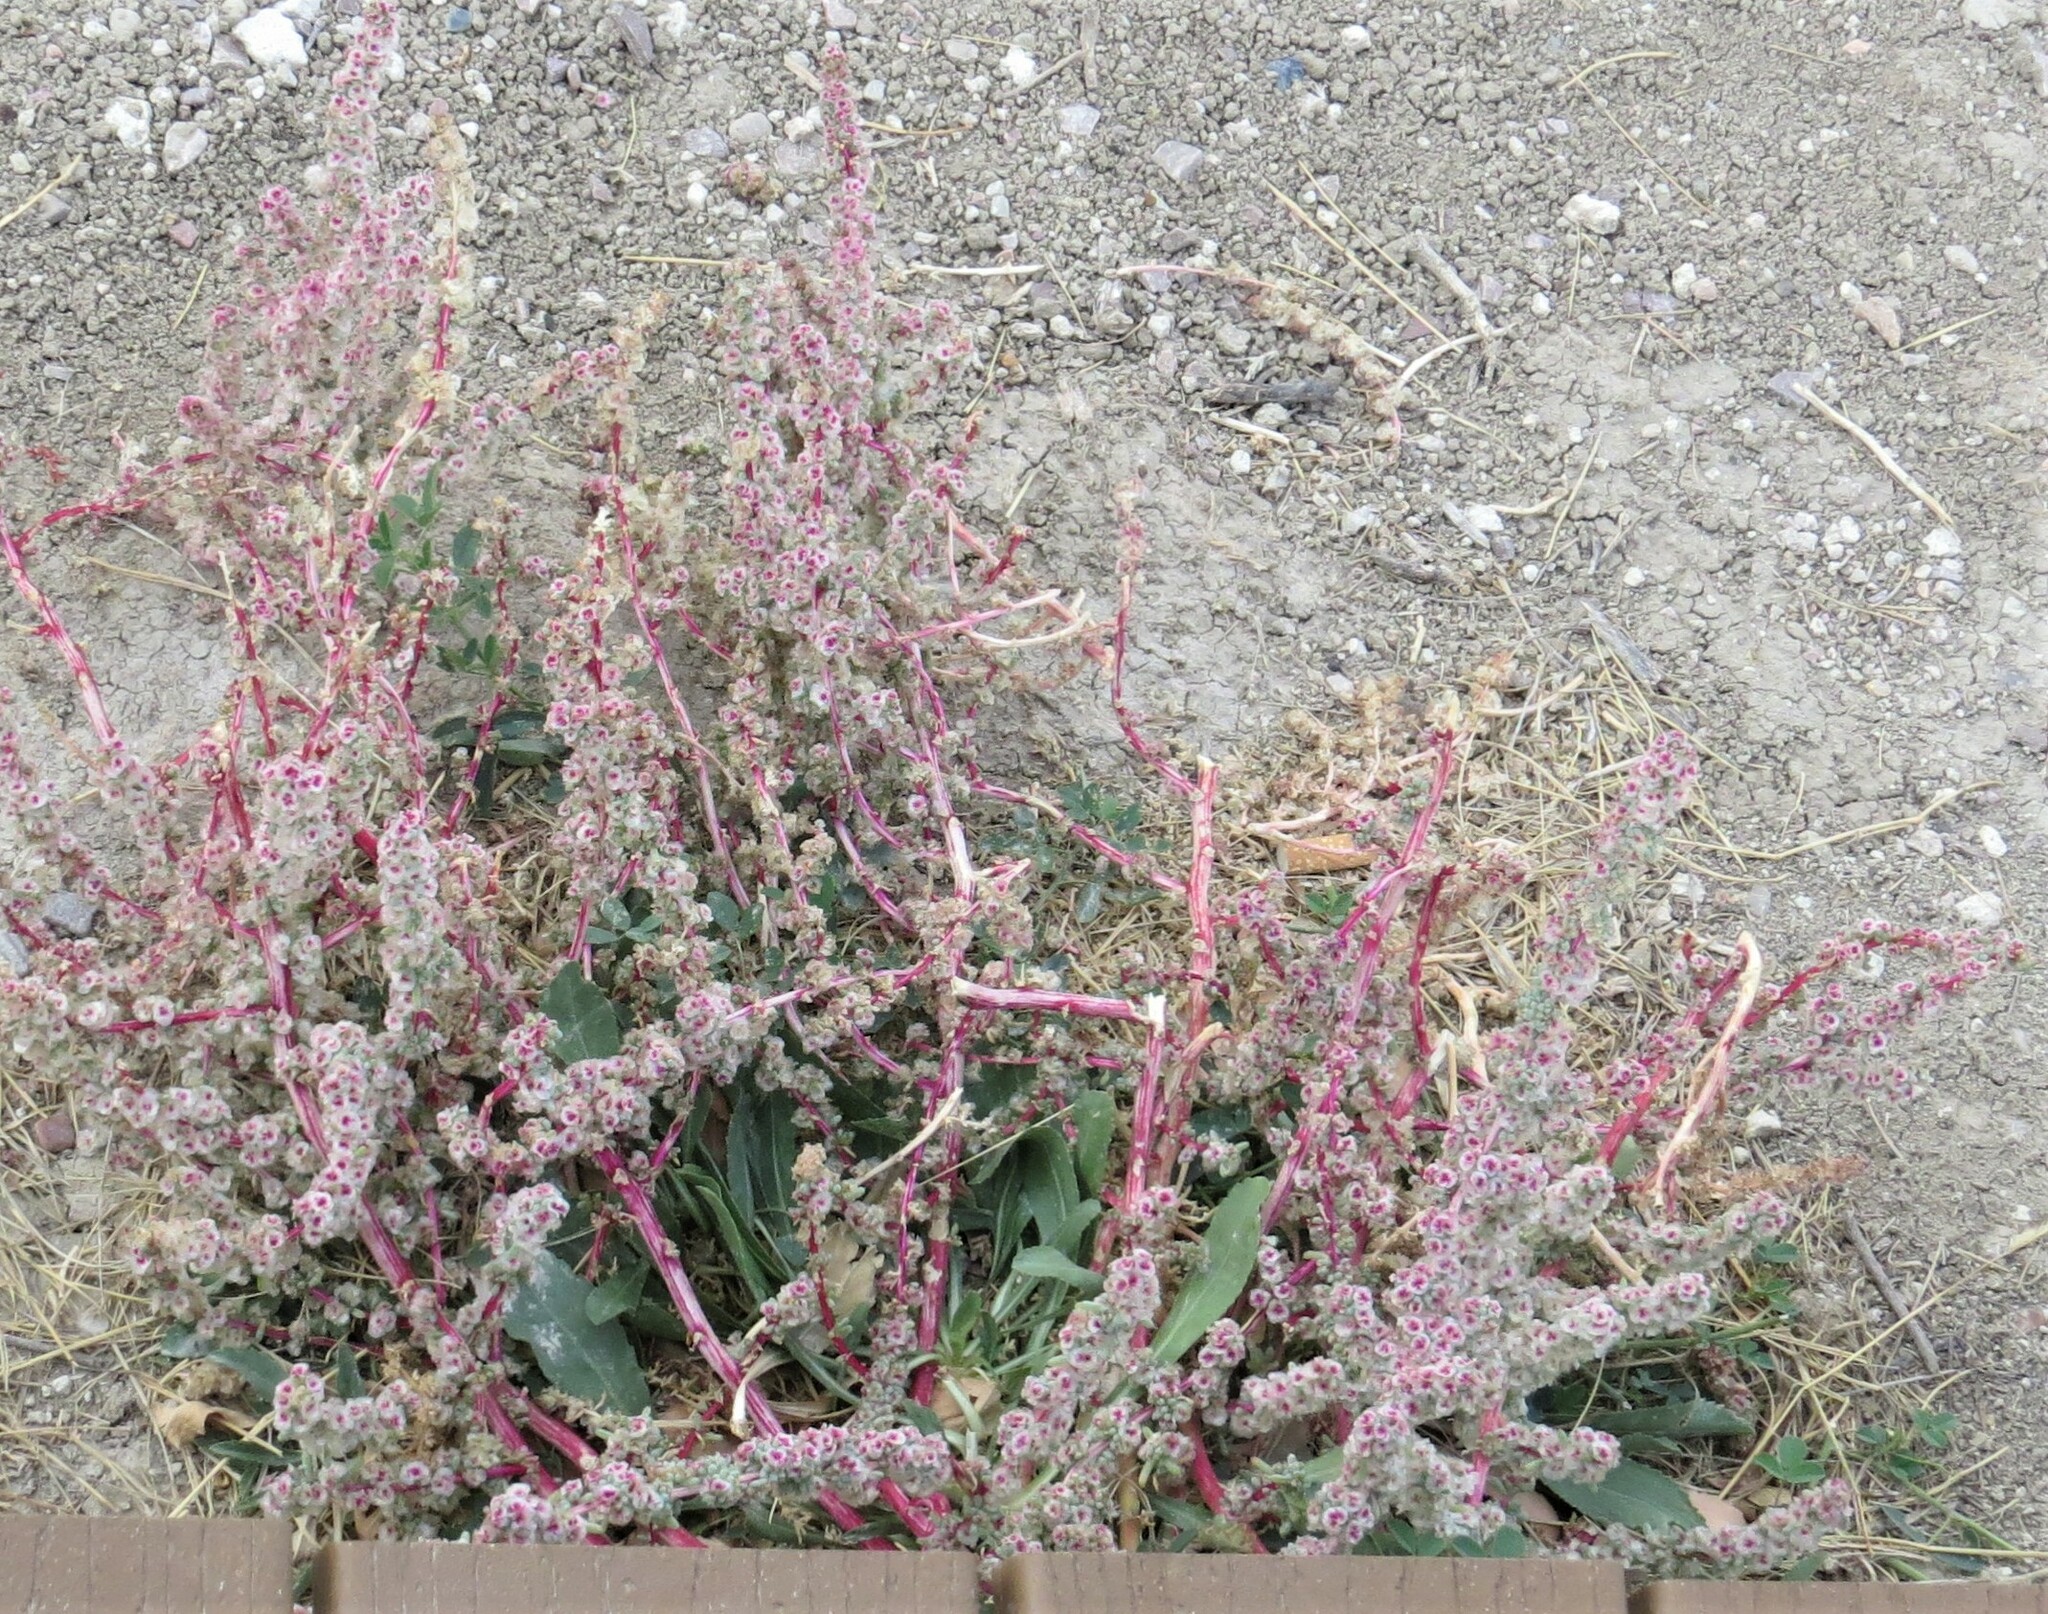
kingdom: Plantae
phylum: Tracheophyta
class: Magnoliopsida
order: Caryophyllales
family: Amaranthaceae
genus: Halogeton
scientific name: Halogeton glomeratus
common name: Saltlover
